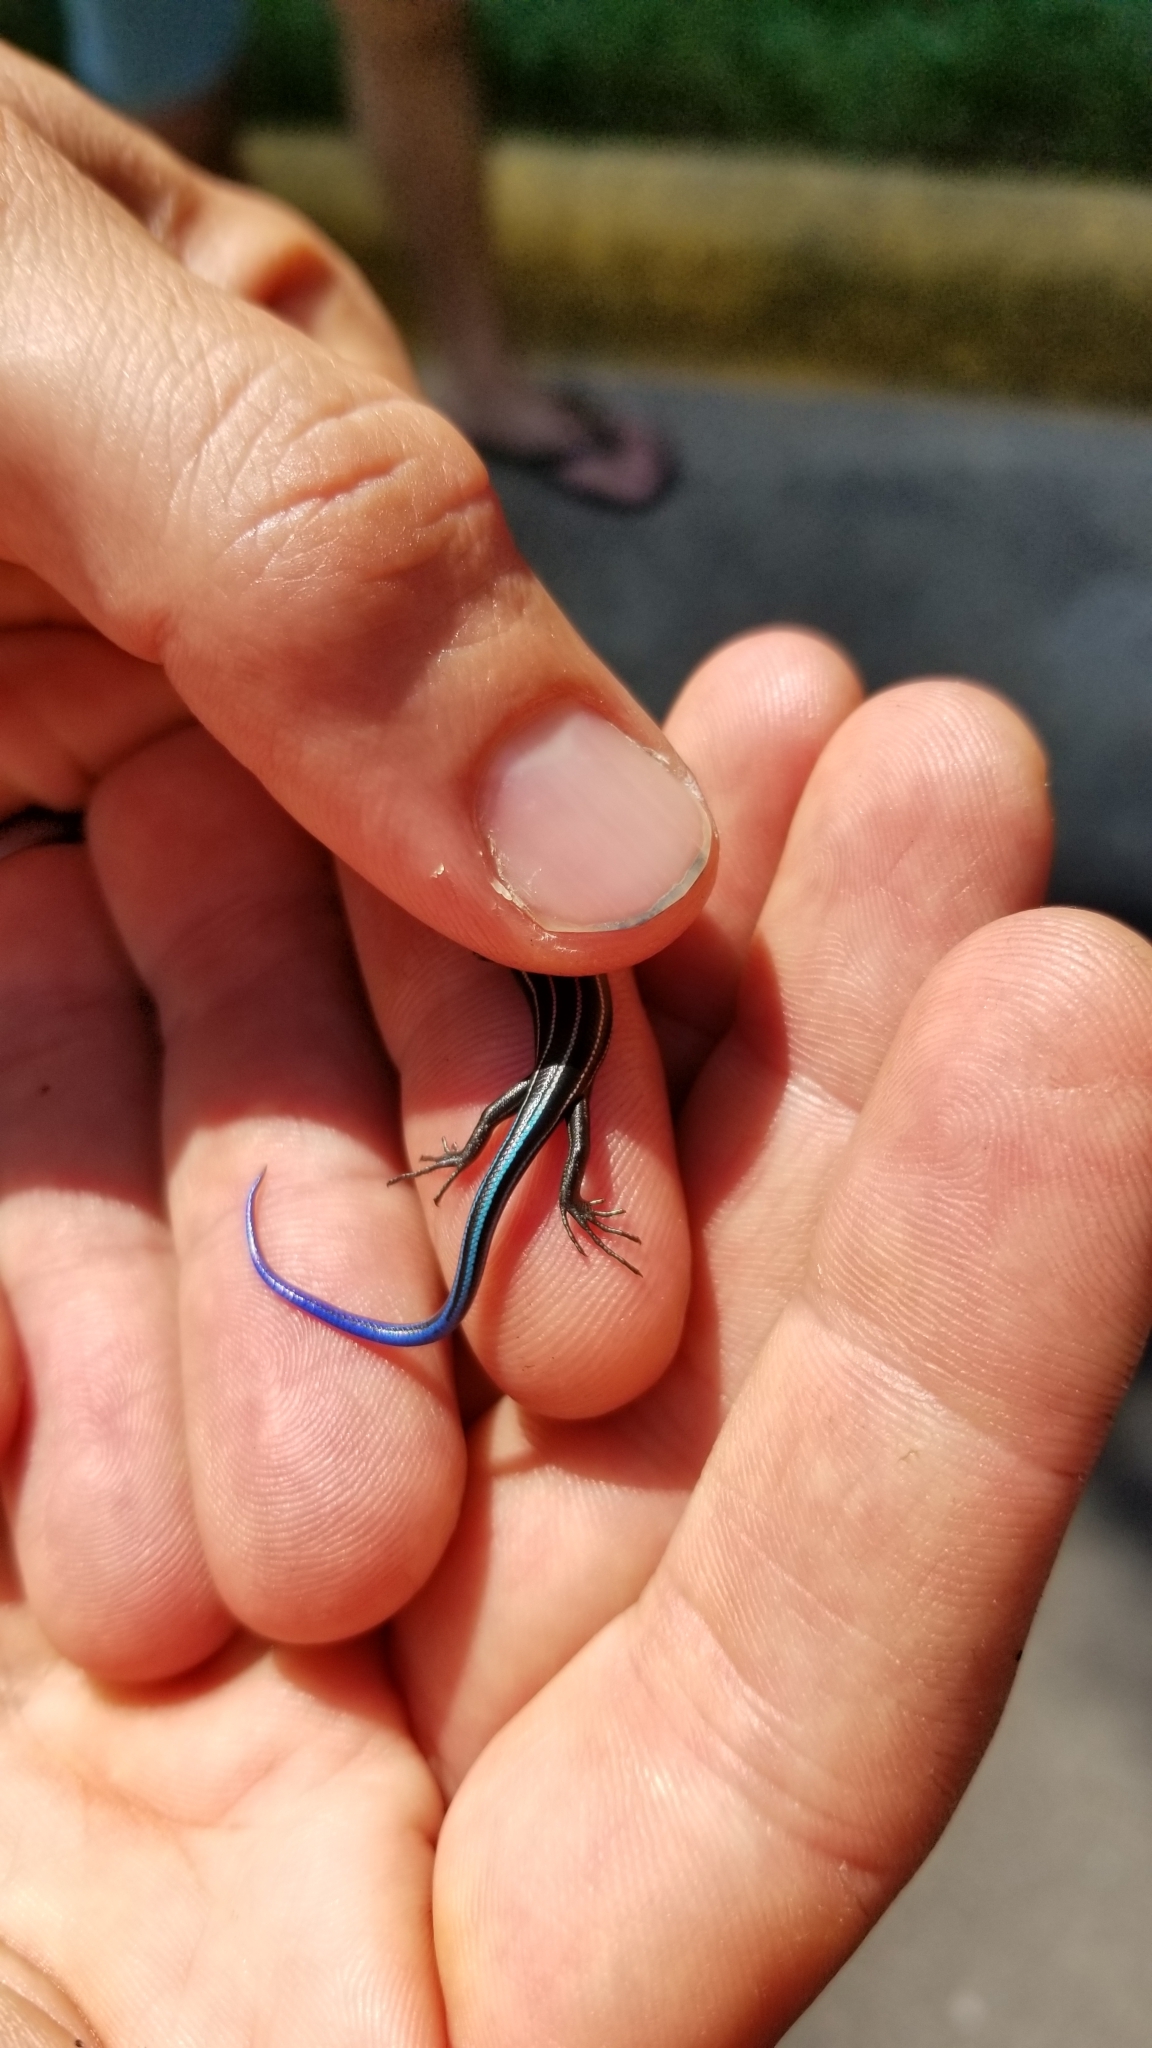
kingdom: Animalia
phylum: Chordata
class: Squamata
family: Scincidae
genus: Plestiodon
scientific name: Plestiodon fasciatus
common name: Five-lined skink
